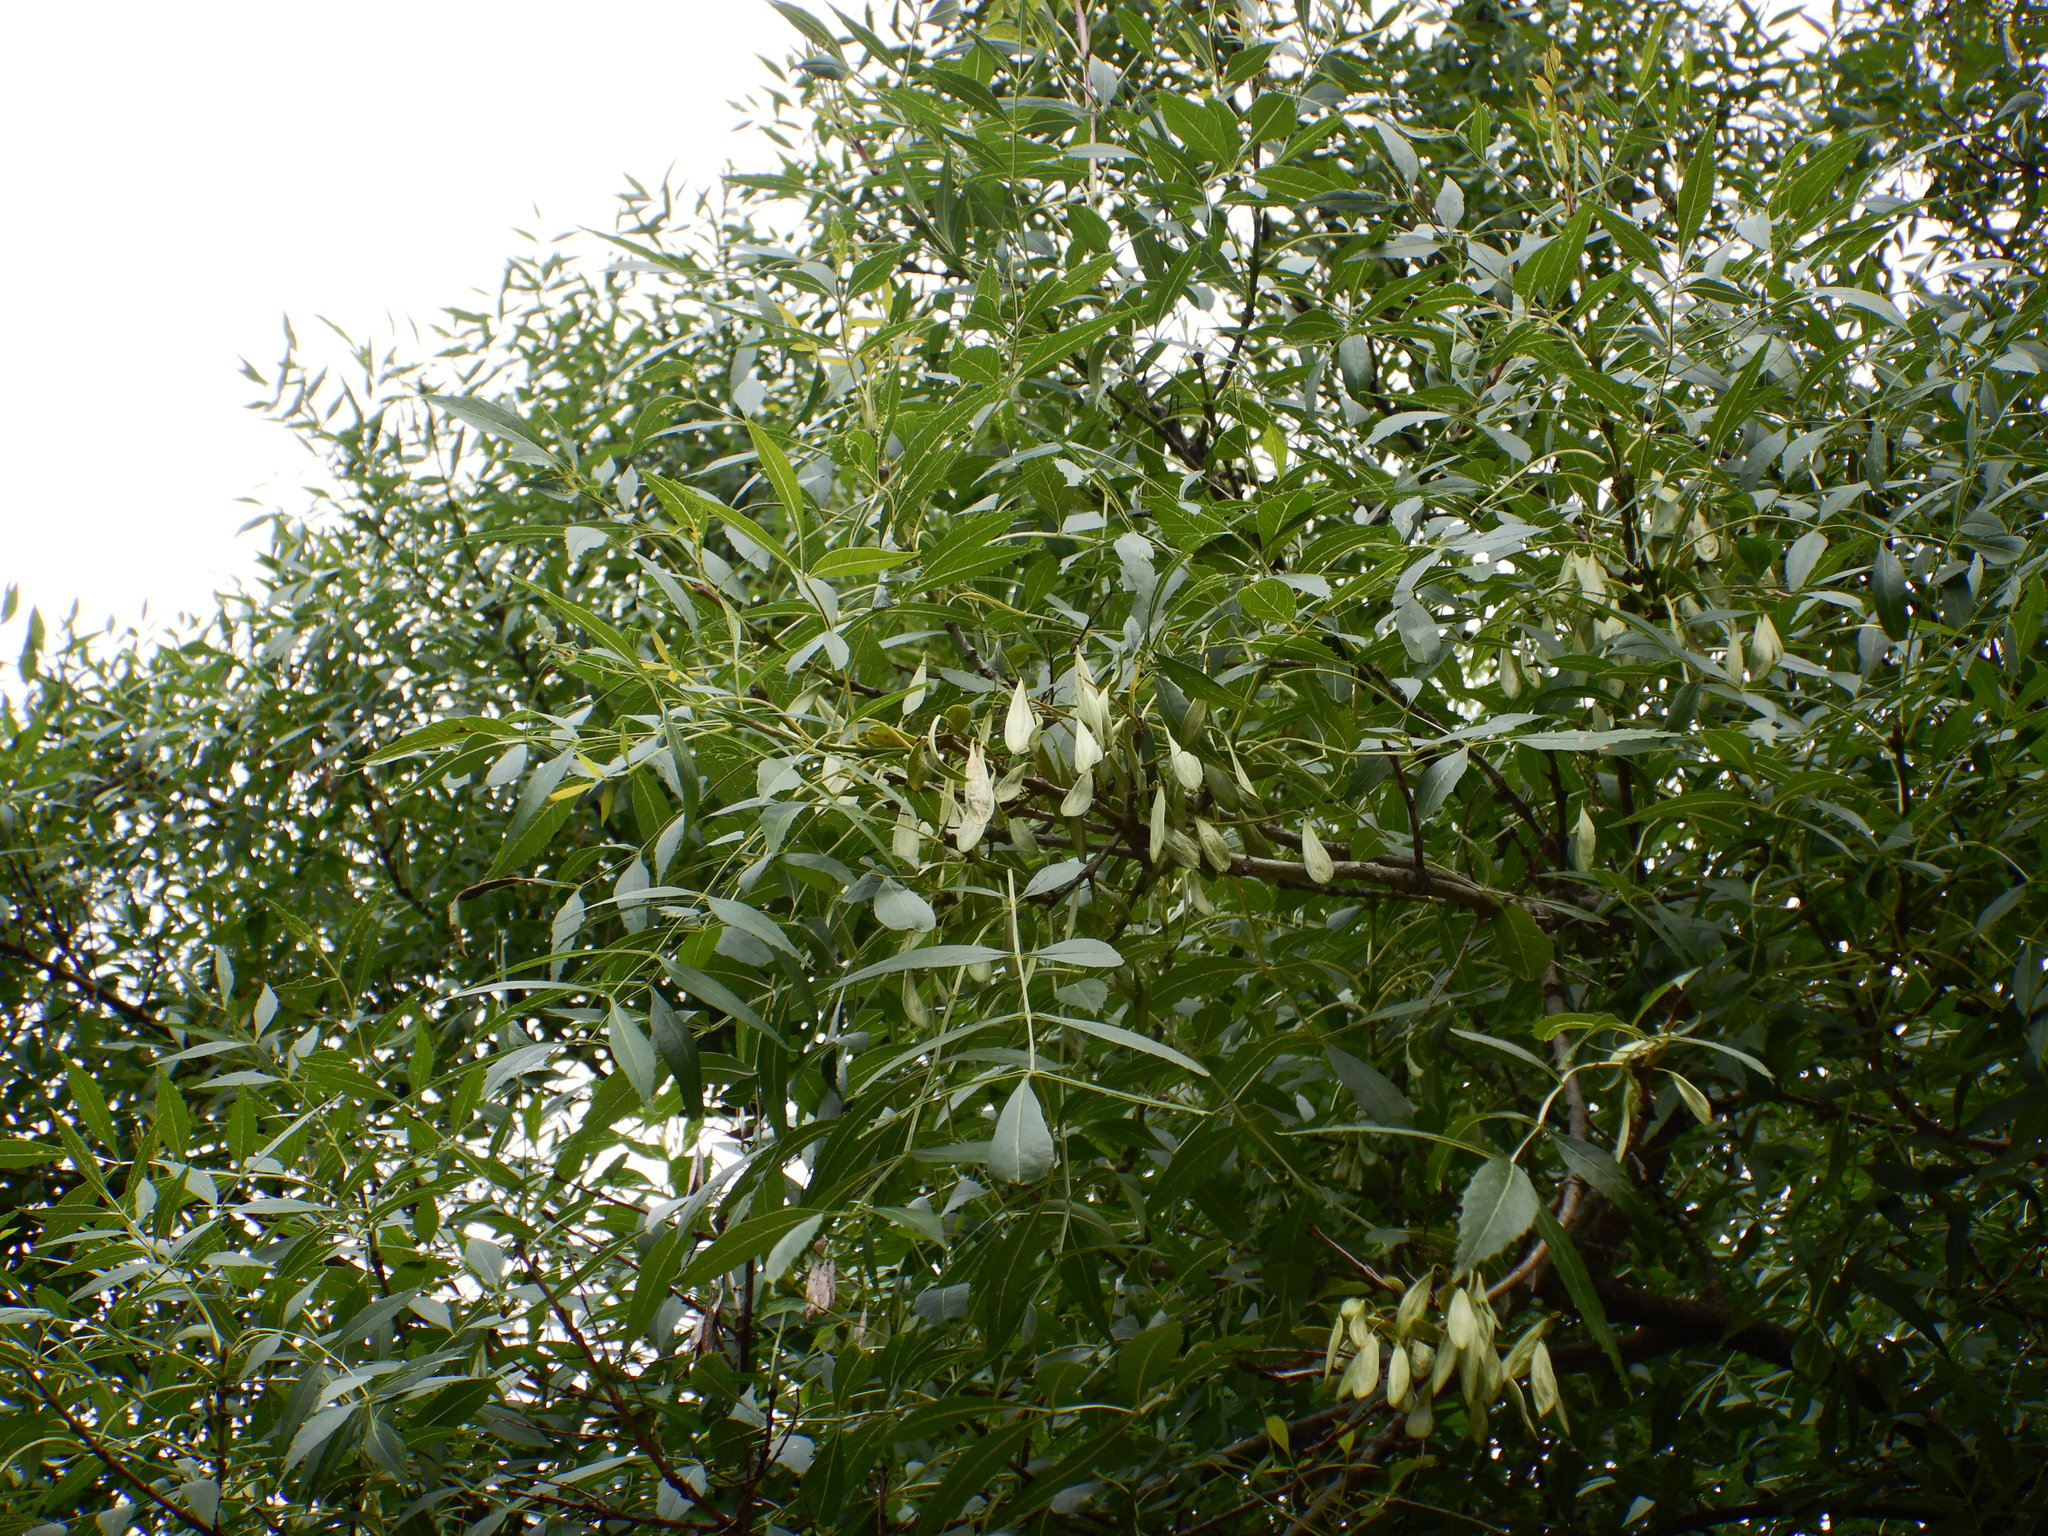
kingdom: Plantae
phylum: Tracheophyta
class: Magnoliopsida
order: Lamiales
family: Oleaceae
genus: Fraxinus
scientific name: Fraxinus angustifolia
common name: Narrow-leafed ash
